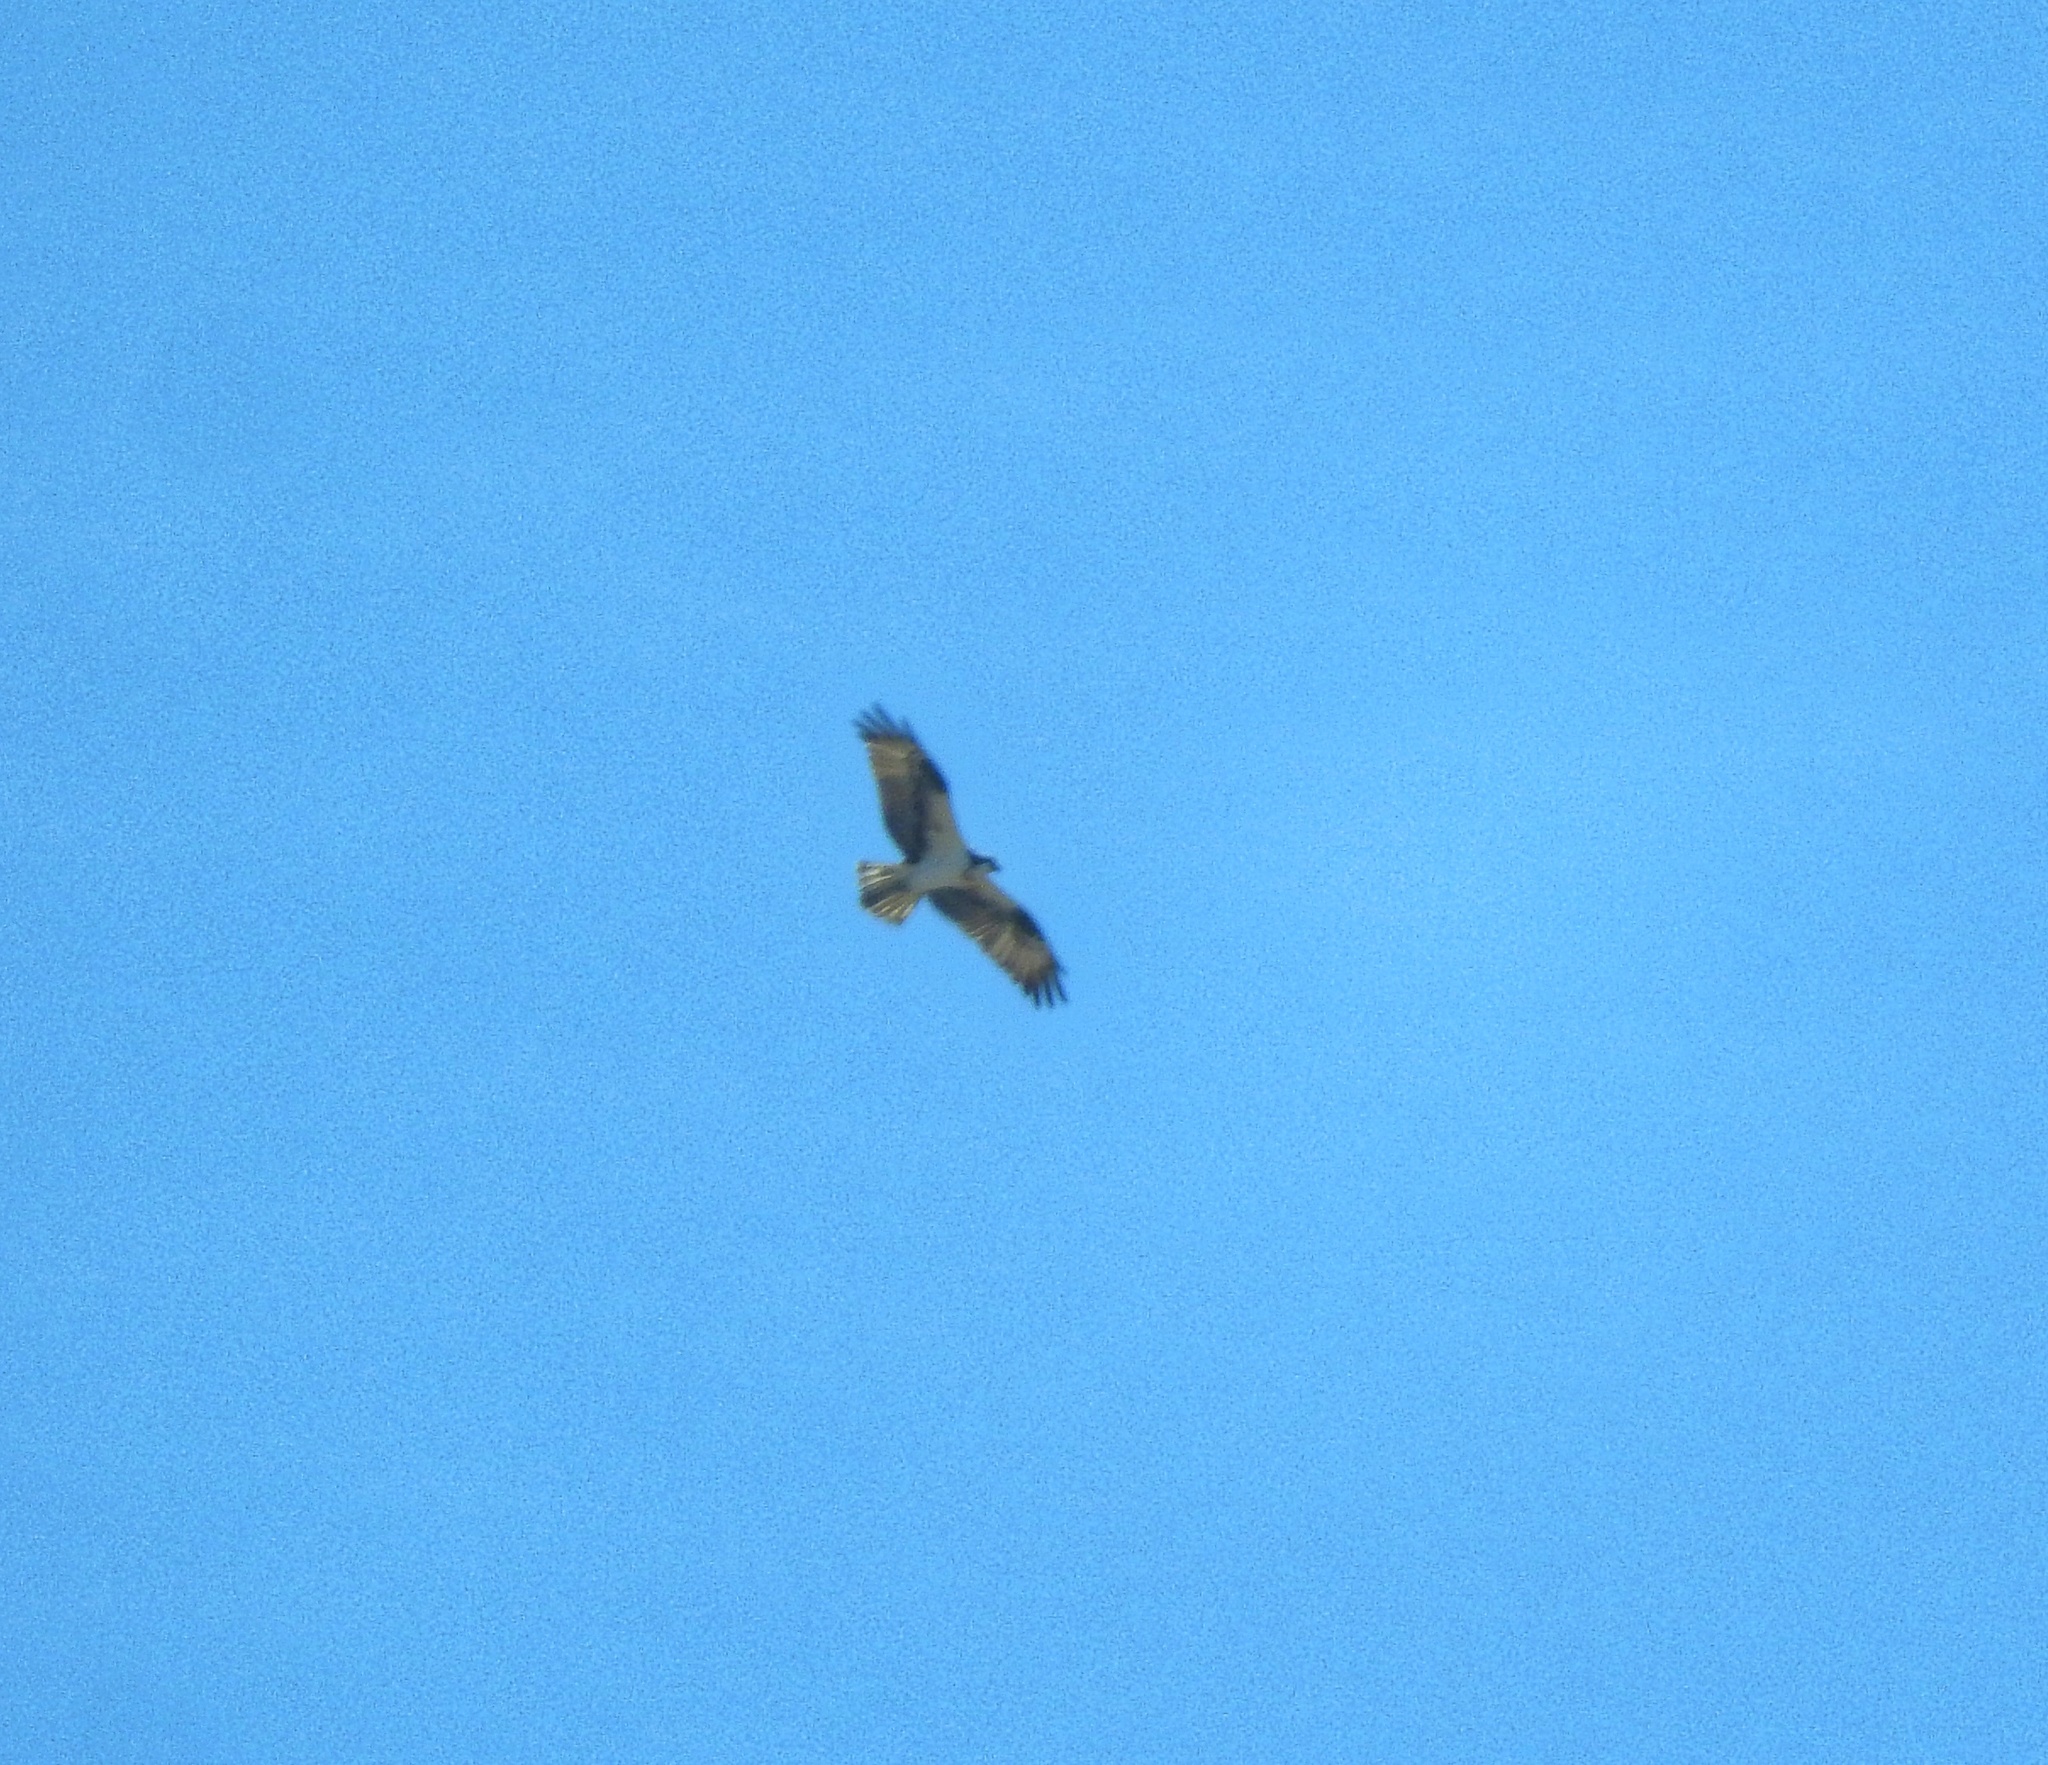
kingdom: Animalia
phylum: Chordata
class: Aves
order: Accipitriformes
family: Pandionidae
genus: Pandion
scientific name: Pandion haliaetus
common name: Osprey
